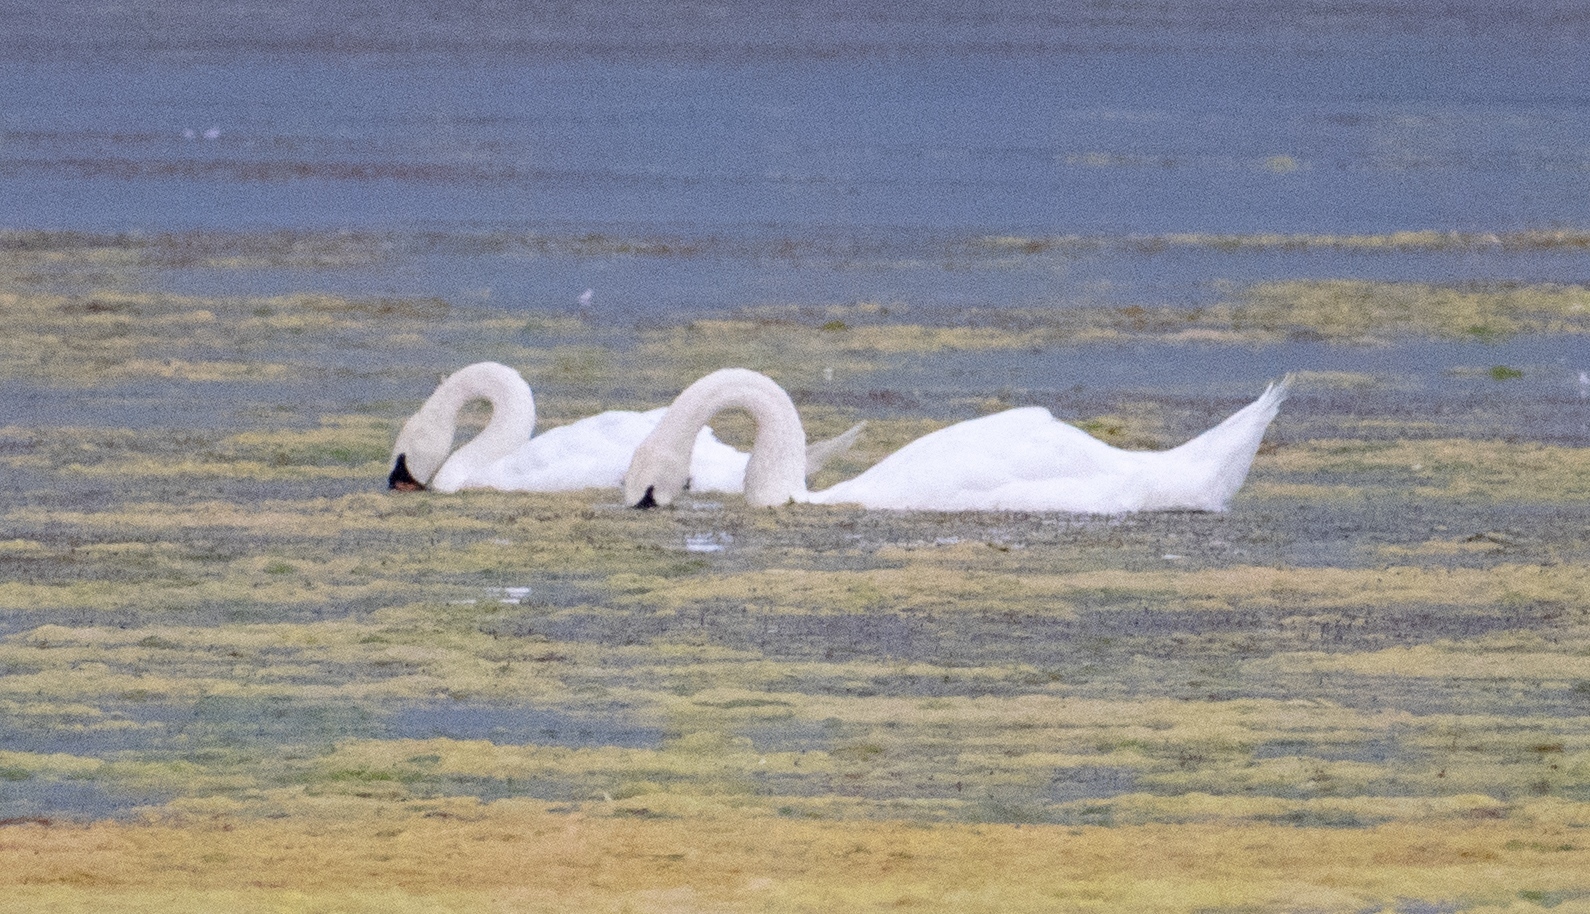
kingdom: Animalia
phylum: Chordata
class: Aves
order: Anseriformes
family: Anatidae
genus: Cygnus
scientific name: Cygnus olor
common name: Mute swan
